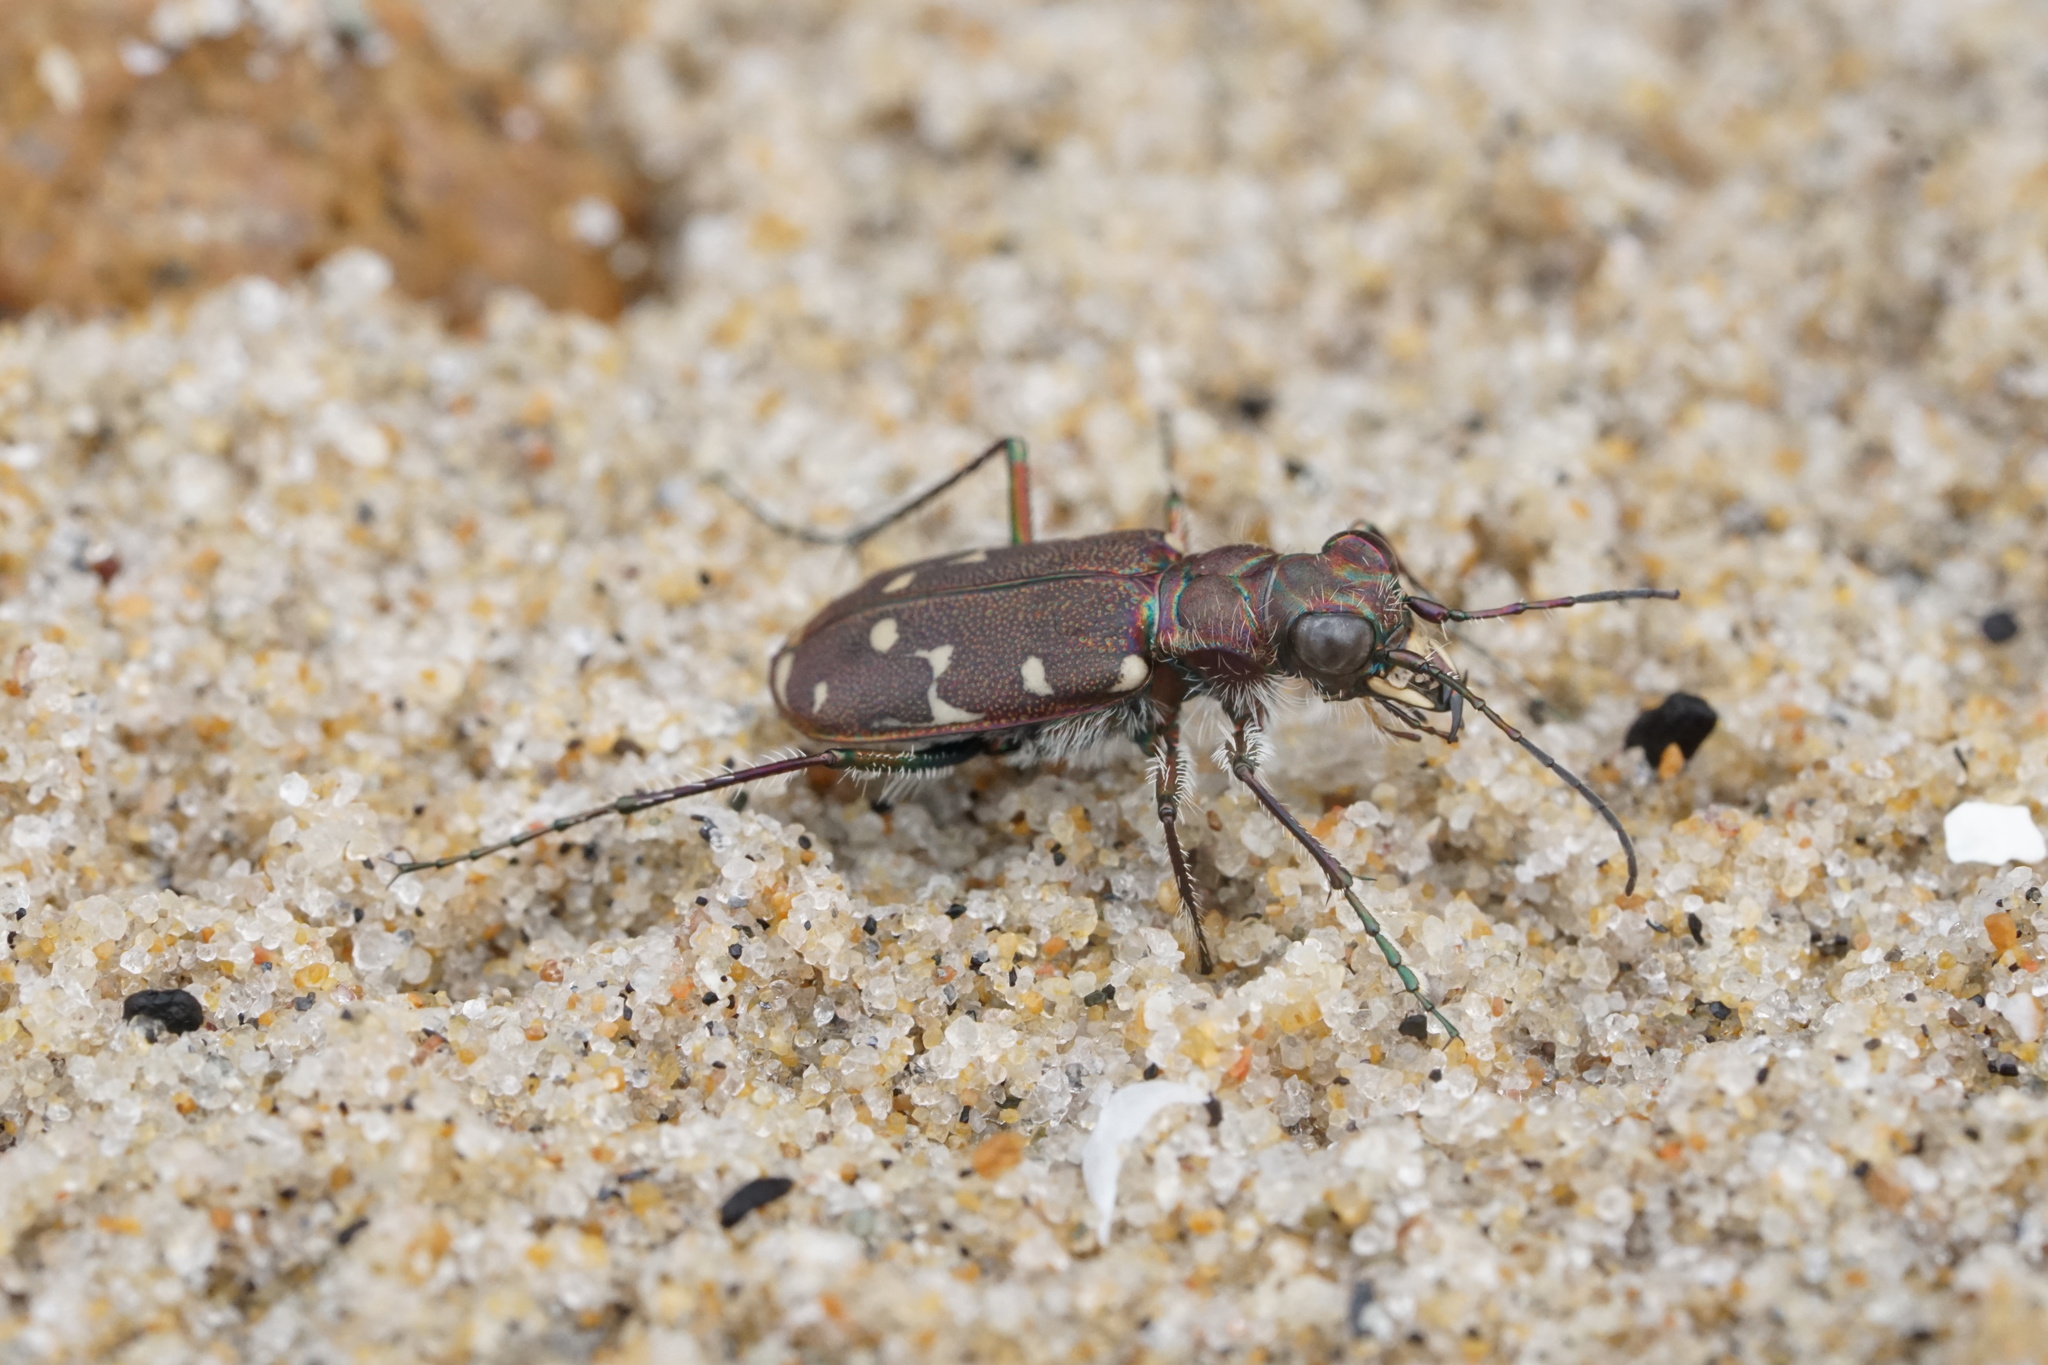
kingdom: Animalia
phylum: Arthropoda
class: Insecta
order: Coleoptera
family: Carabidae
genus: Cicindela
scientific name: Cicindela duodecimguttata
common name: Twelve-spotted tiger beetle
